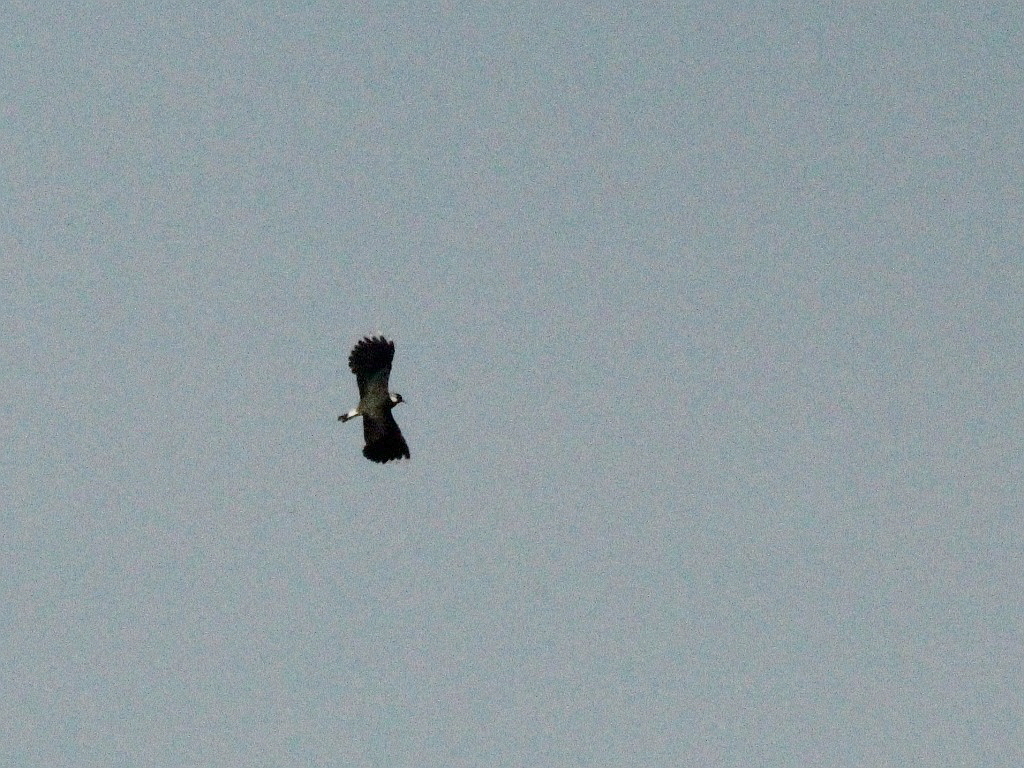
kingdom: Animalia
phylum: Chordata
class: Aves
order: Charadriiformes
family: Charadriidae
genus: Vanellus
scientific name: Vanellus vanellus
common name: Northern lapwing
